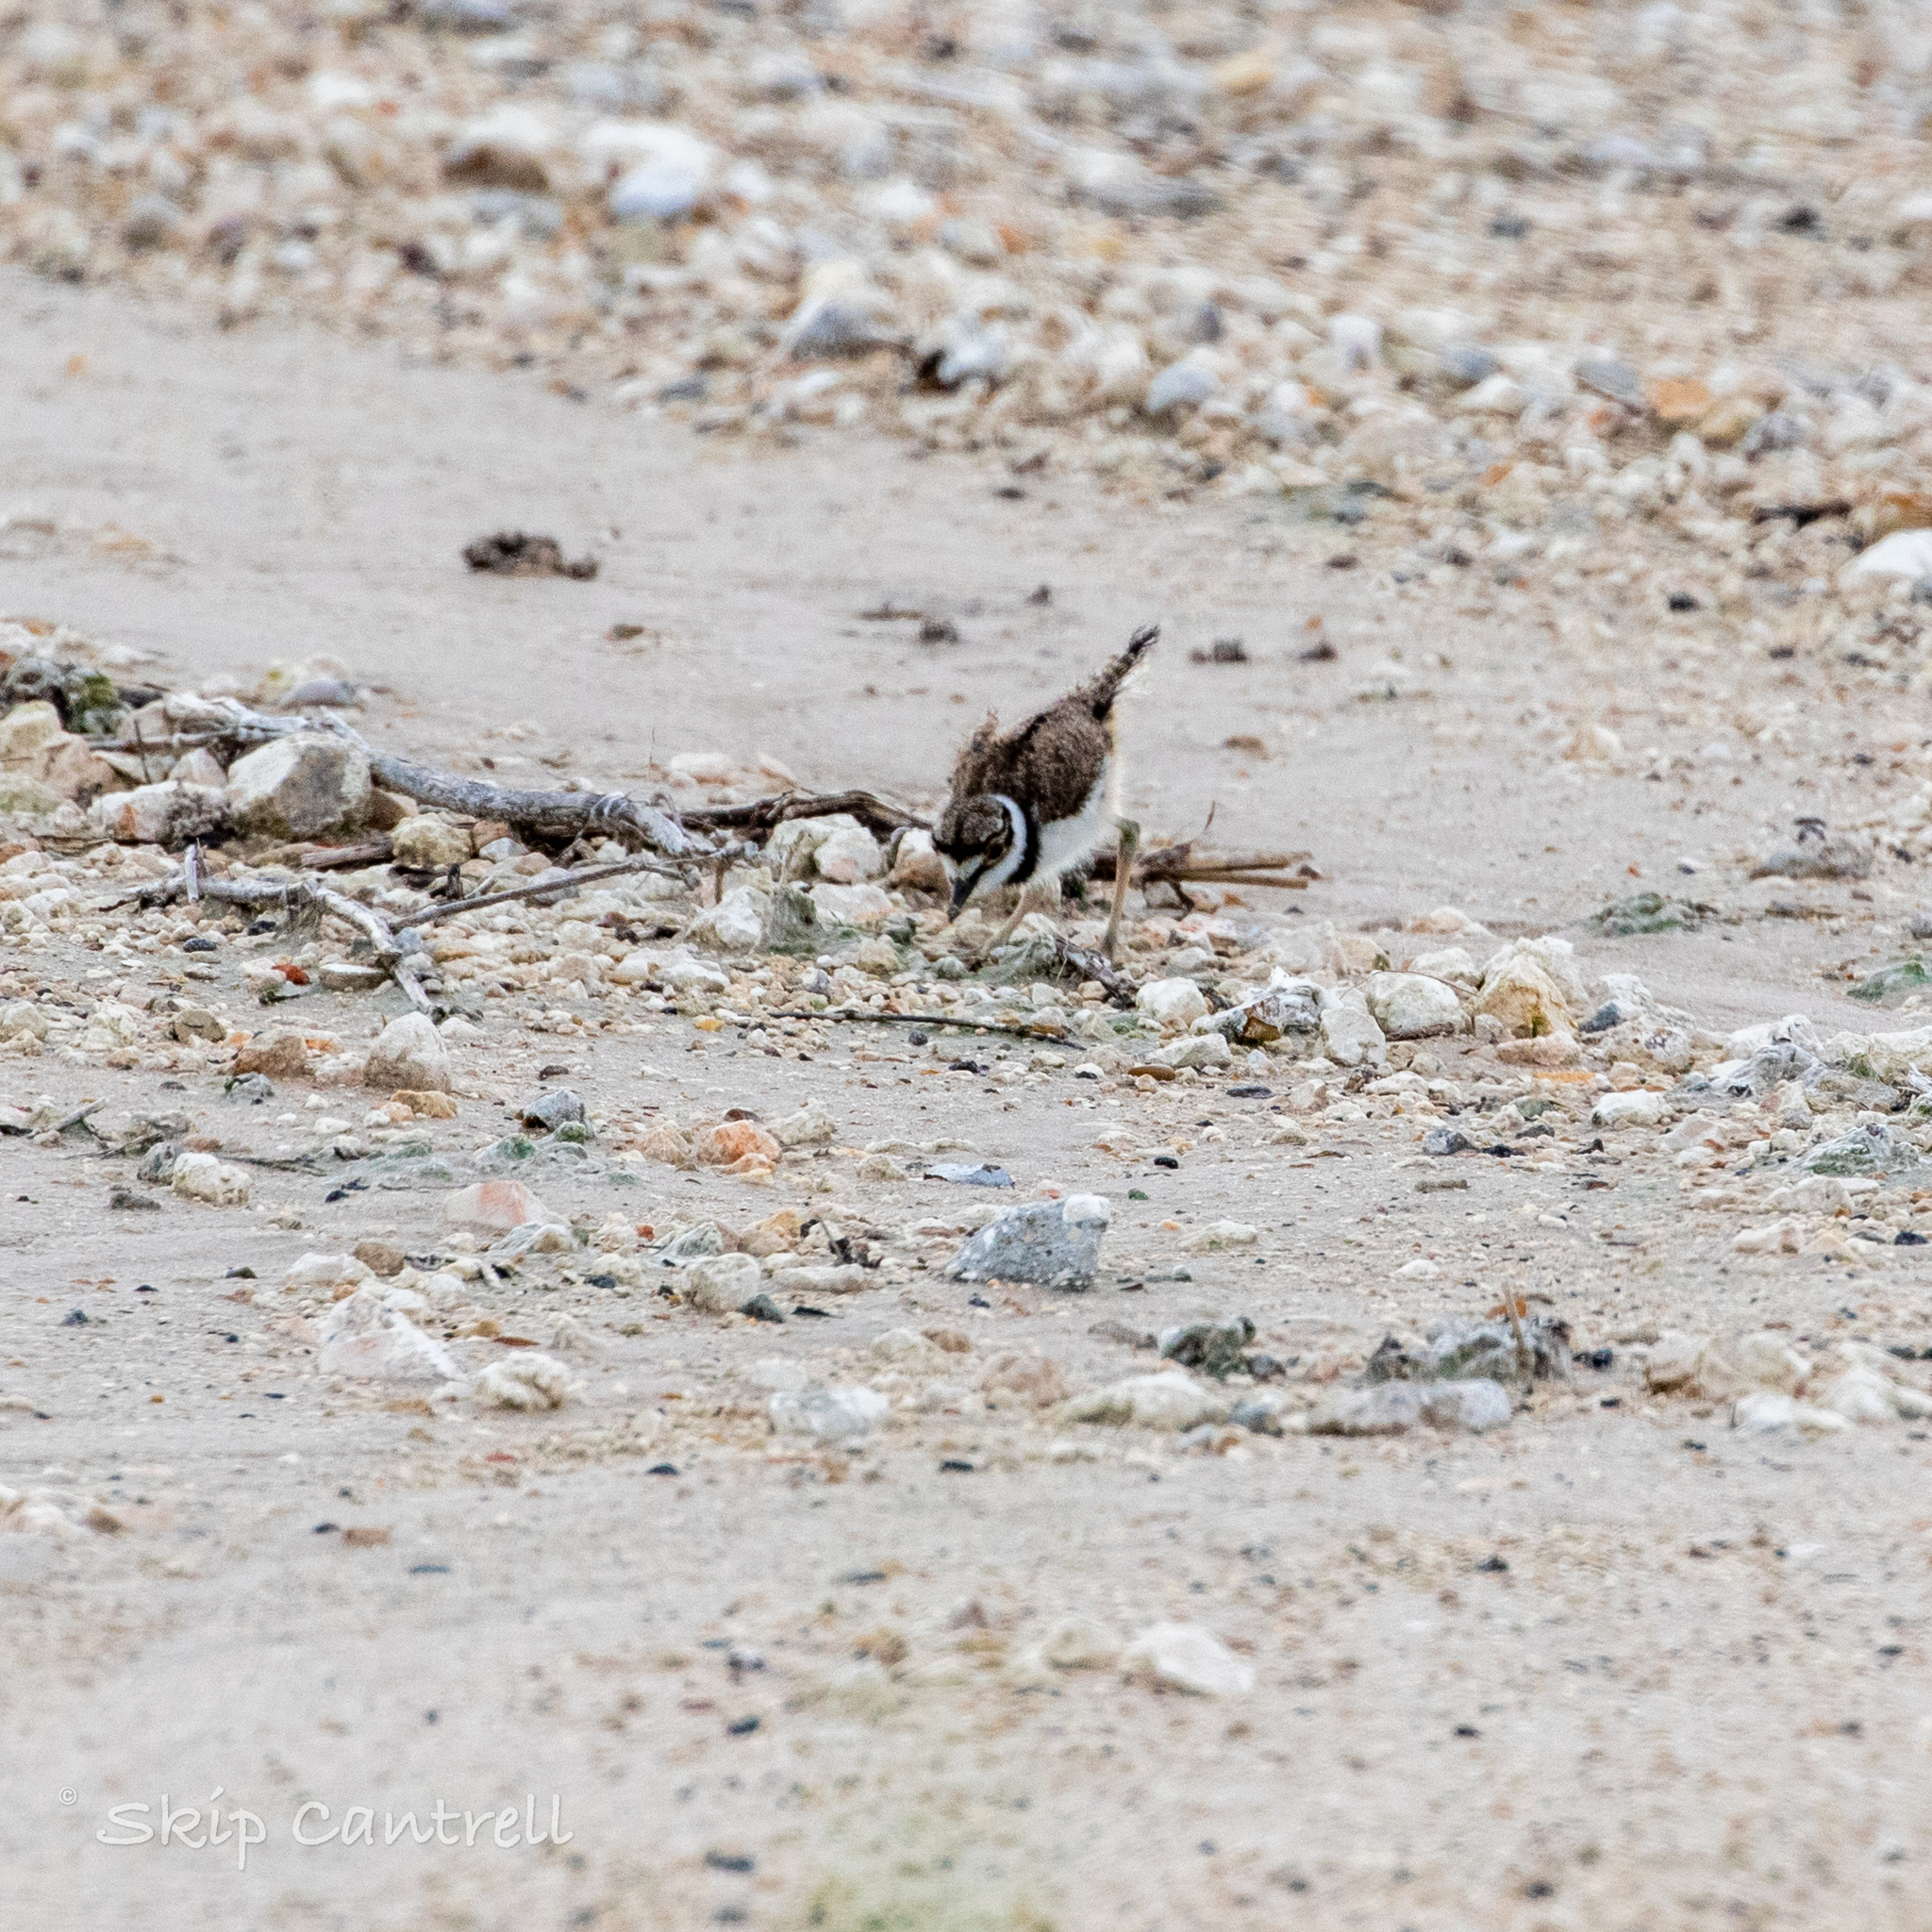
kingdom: Animalia
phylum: Chordata
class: Aves
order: Charadriiformes
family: Charadriidae
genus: Charadrius
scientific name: Charadrius vociferus
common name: Killdeer
